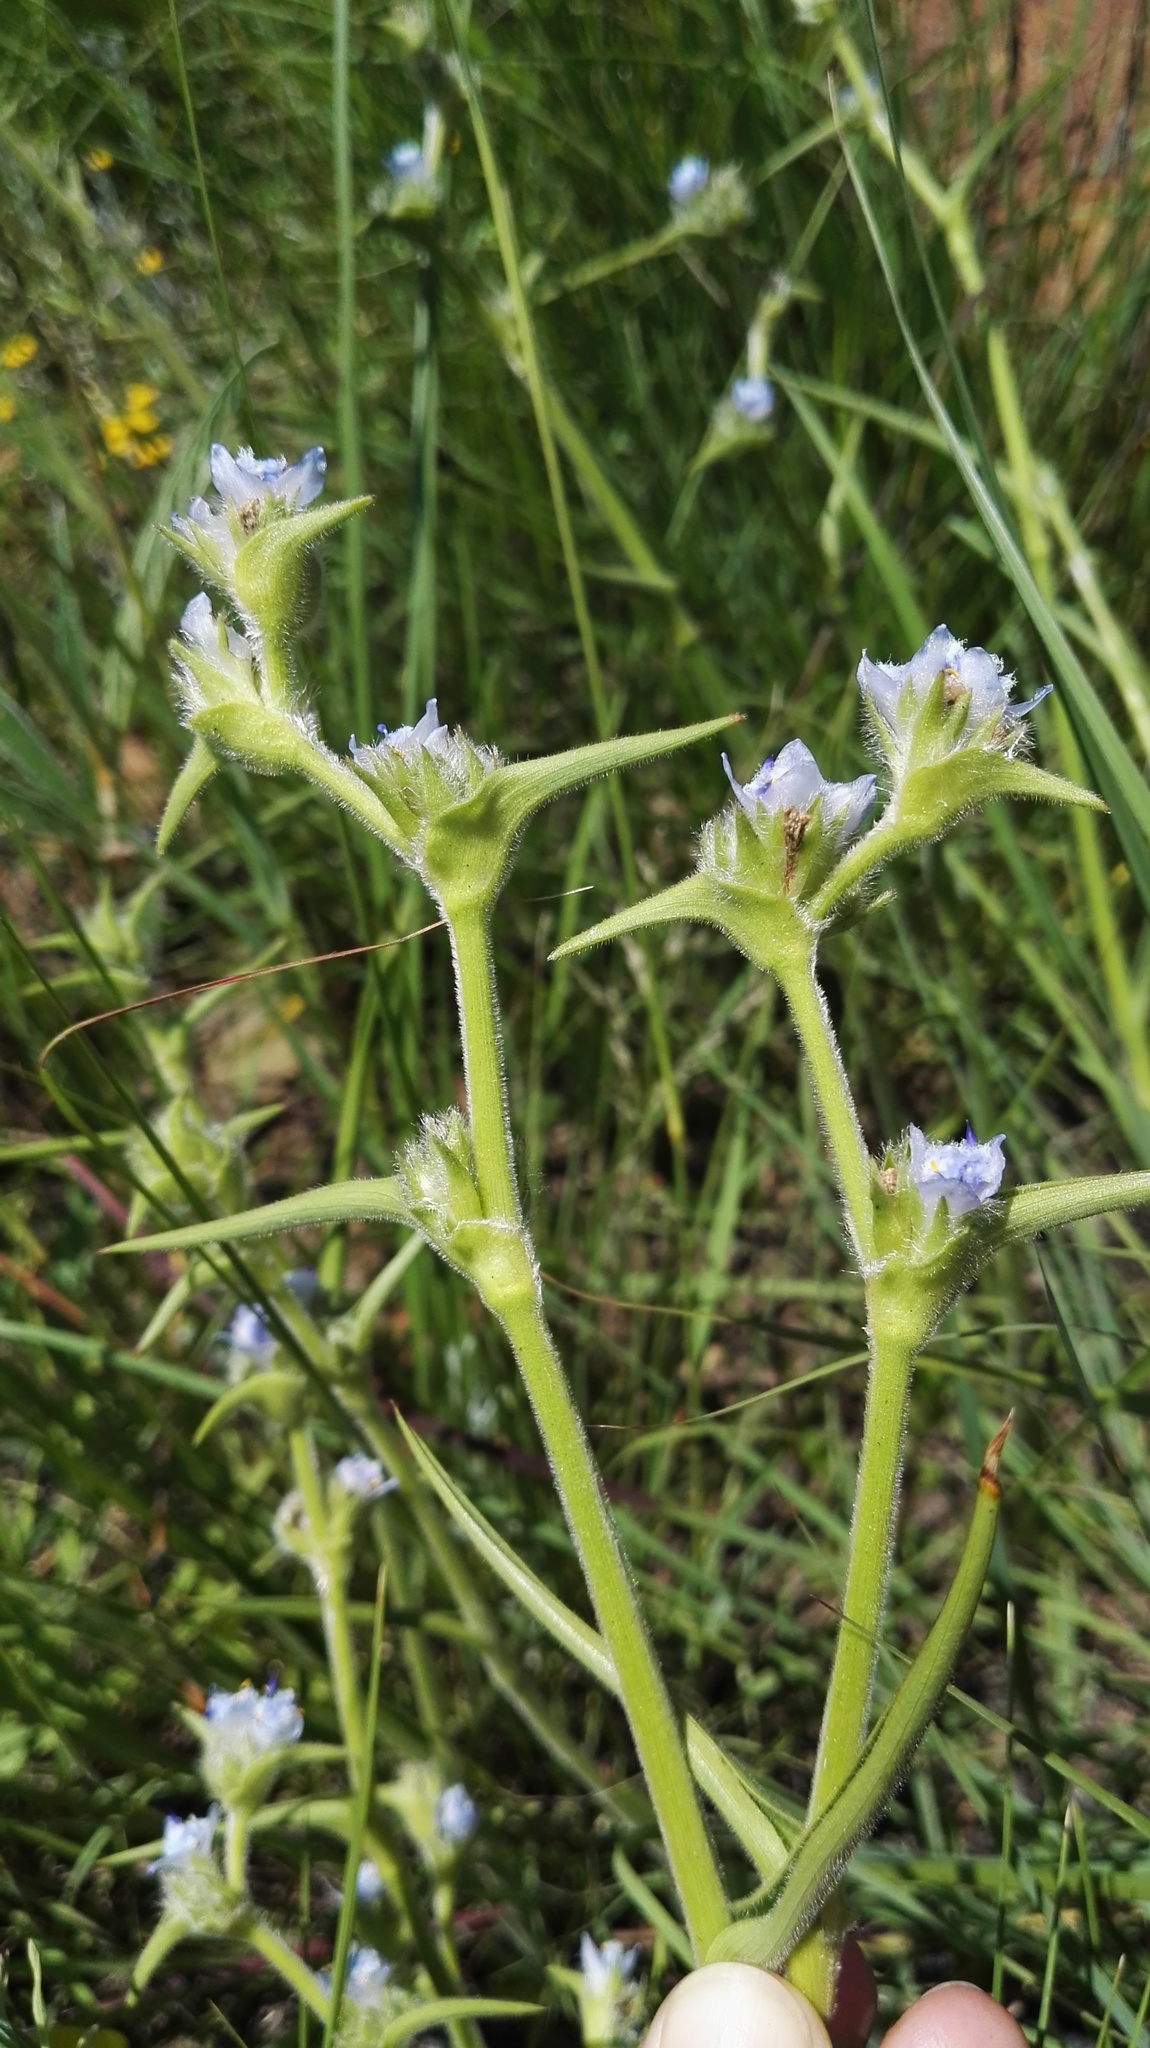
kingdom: Plantae
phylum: Tracheophyta
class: Liliopsida
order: Commelinales
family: Commelinaceae
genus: Cyanotis
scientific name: Cyanotis speciosa
